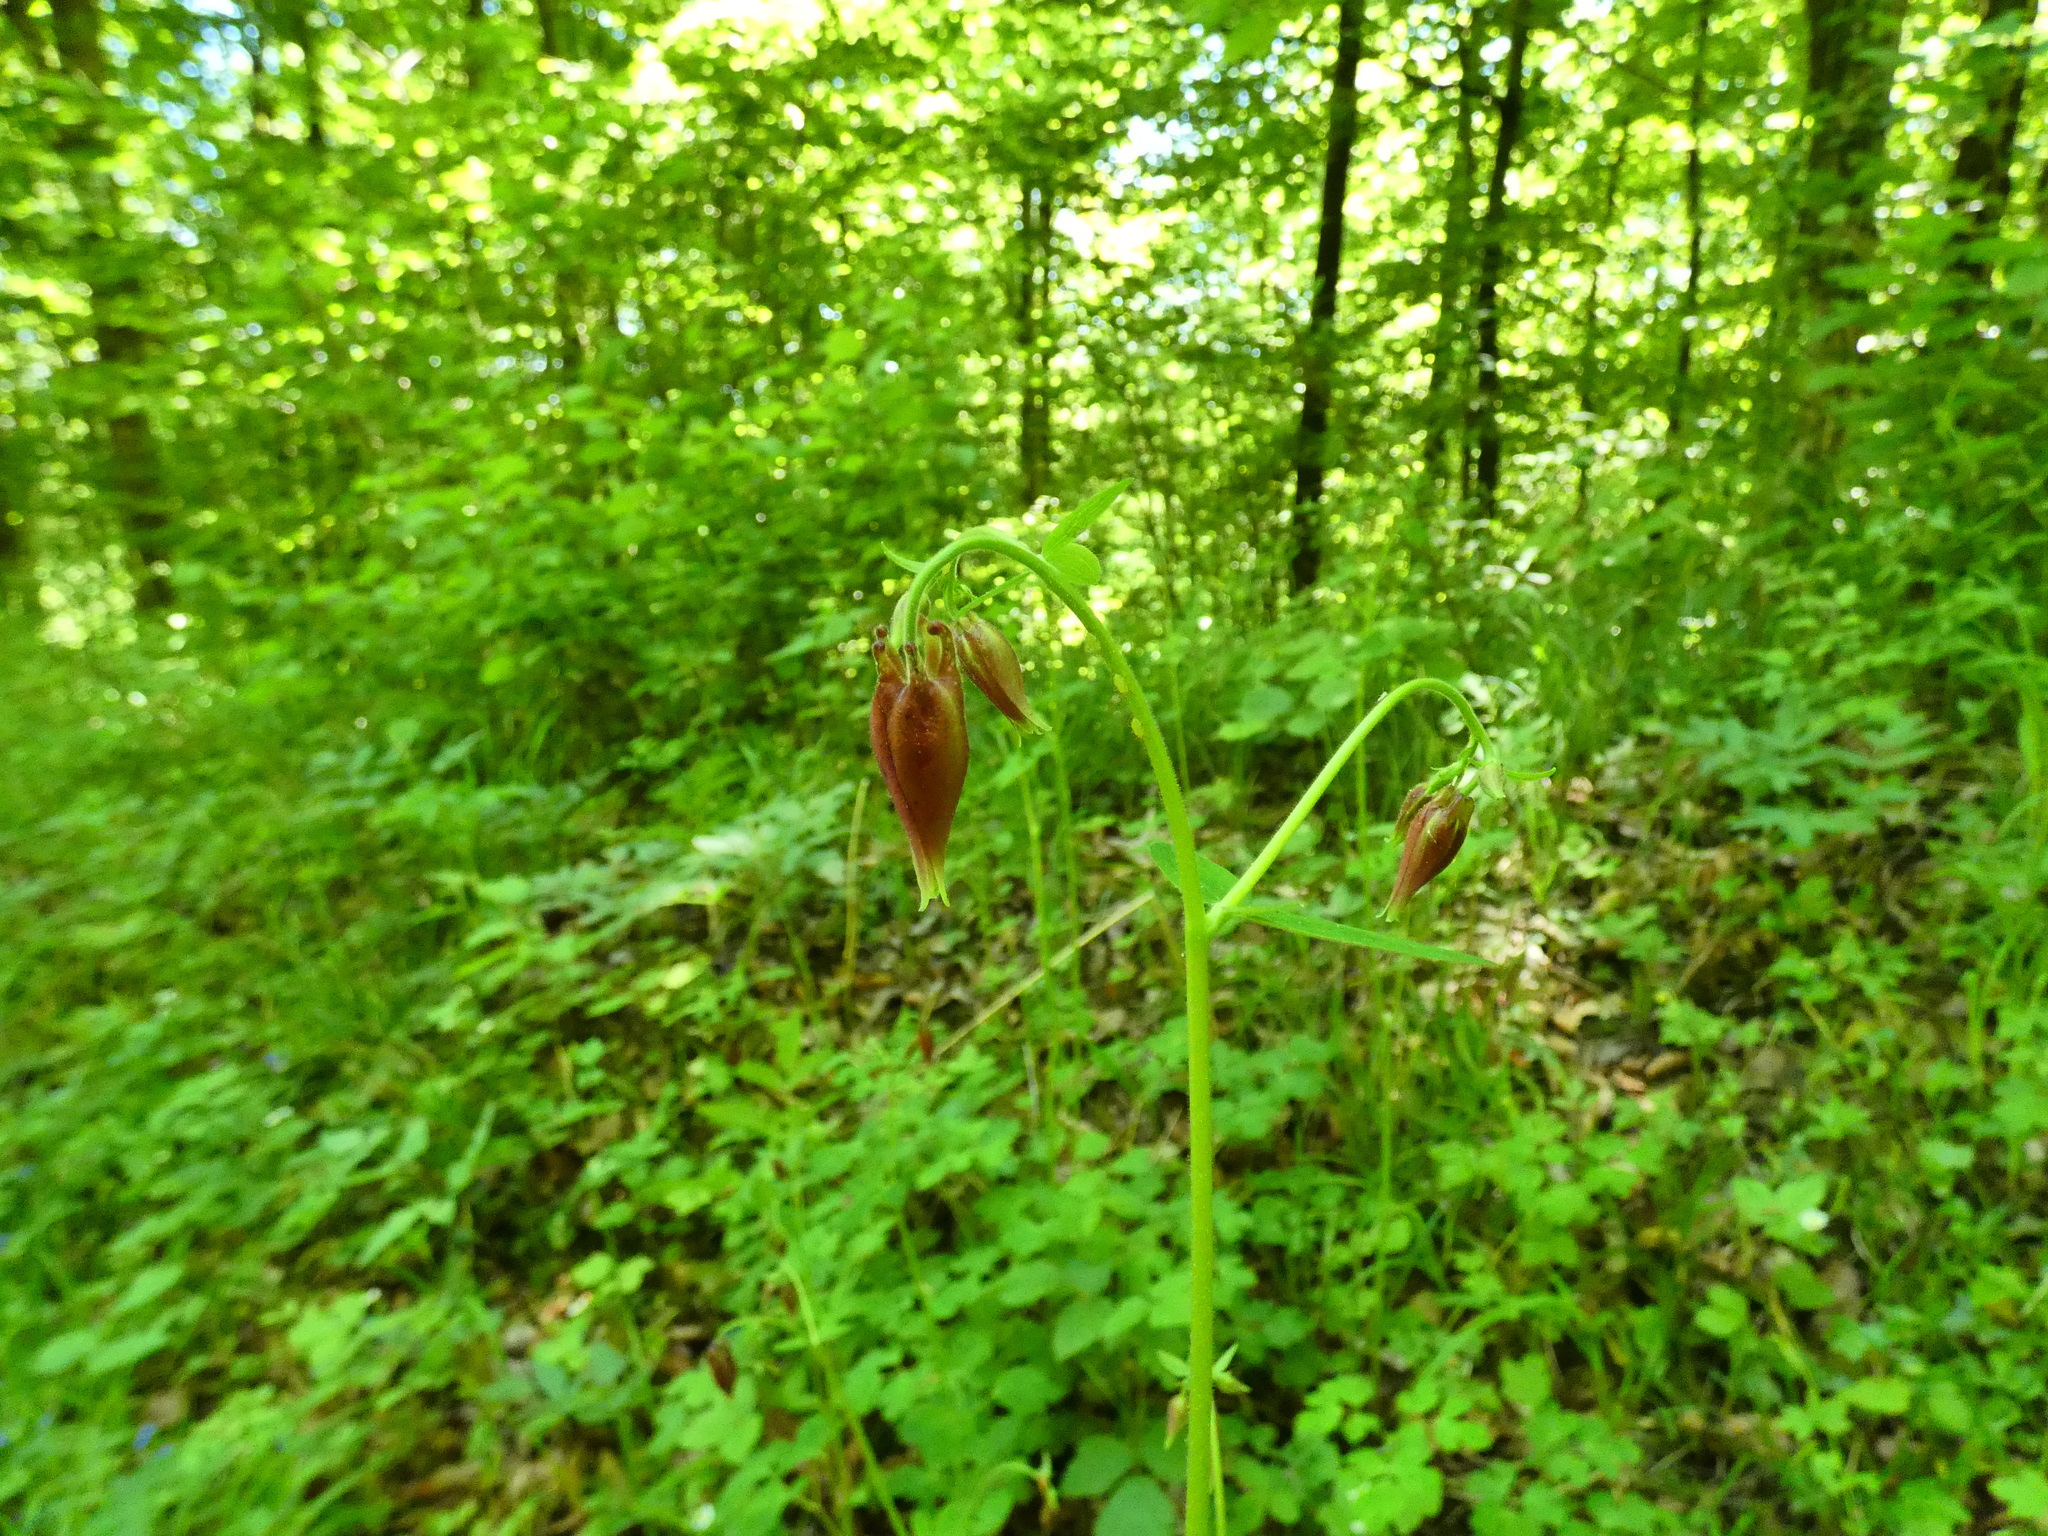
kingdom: Plantae
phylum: Tracheophyta
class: Magnoliopsida
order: Ranunculales
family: Ranunculaceae
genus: Aquilegia
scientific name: Aquilegia atrata
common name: Dark columbine
